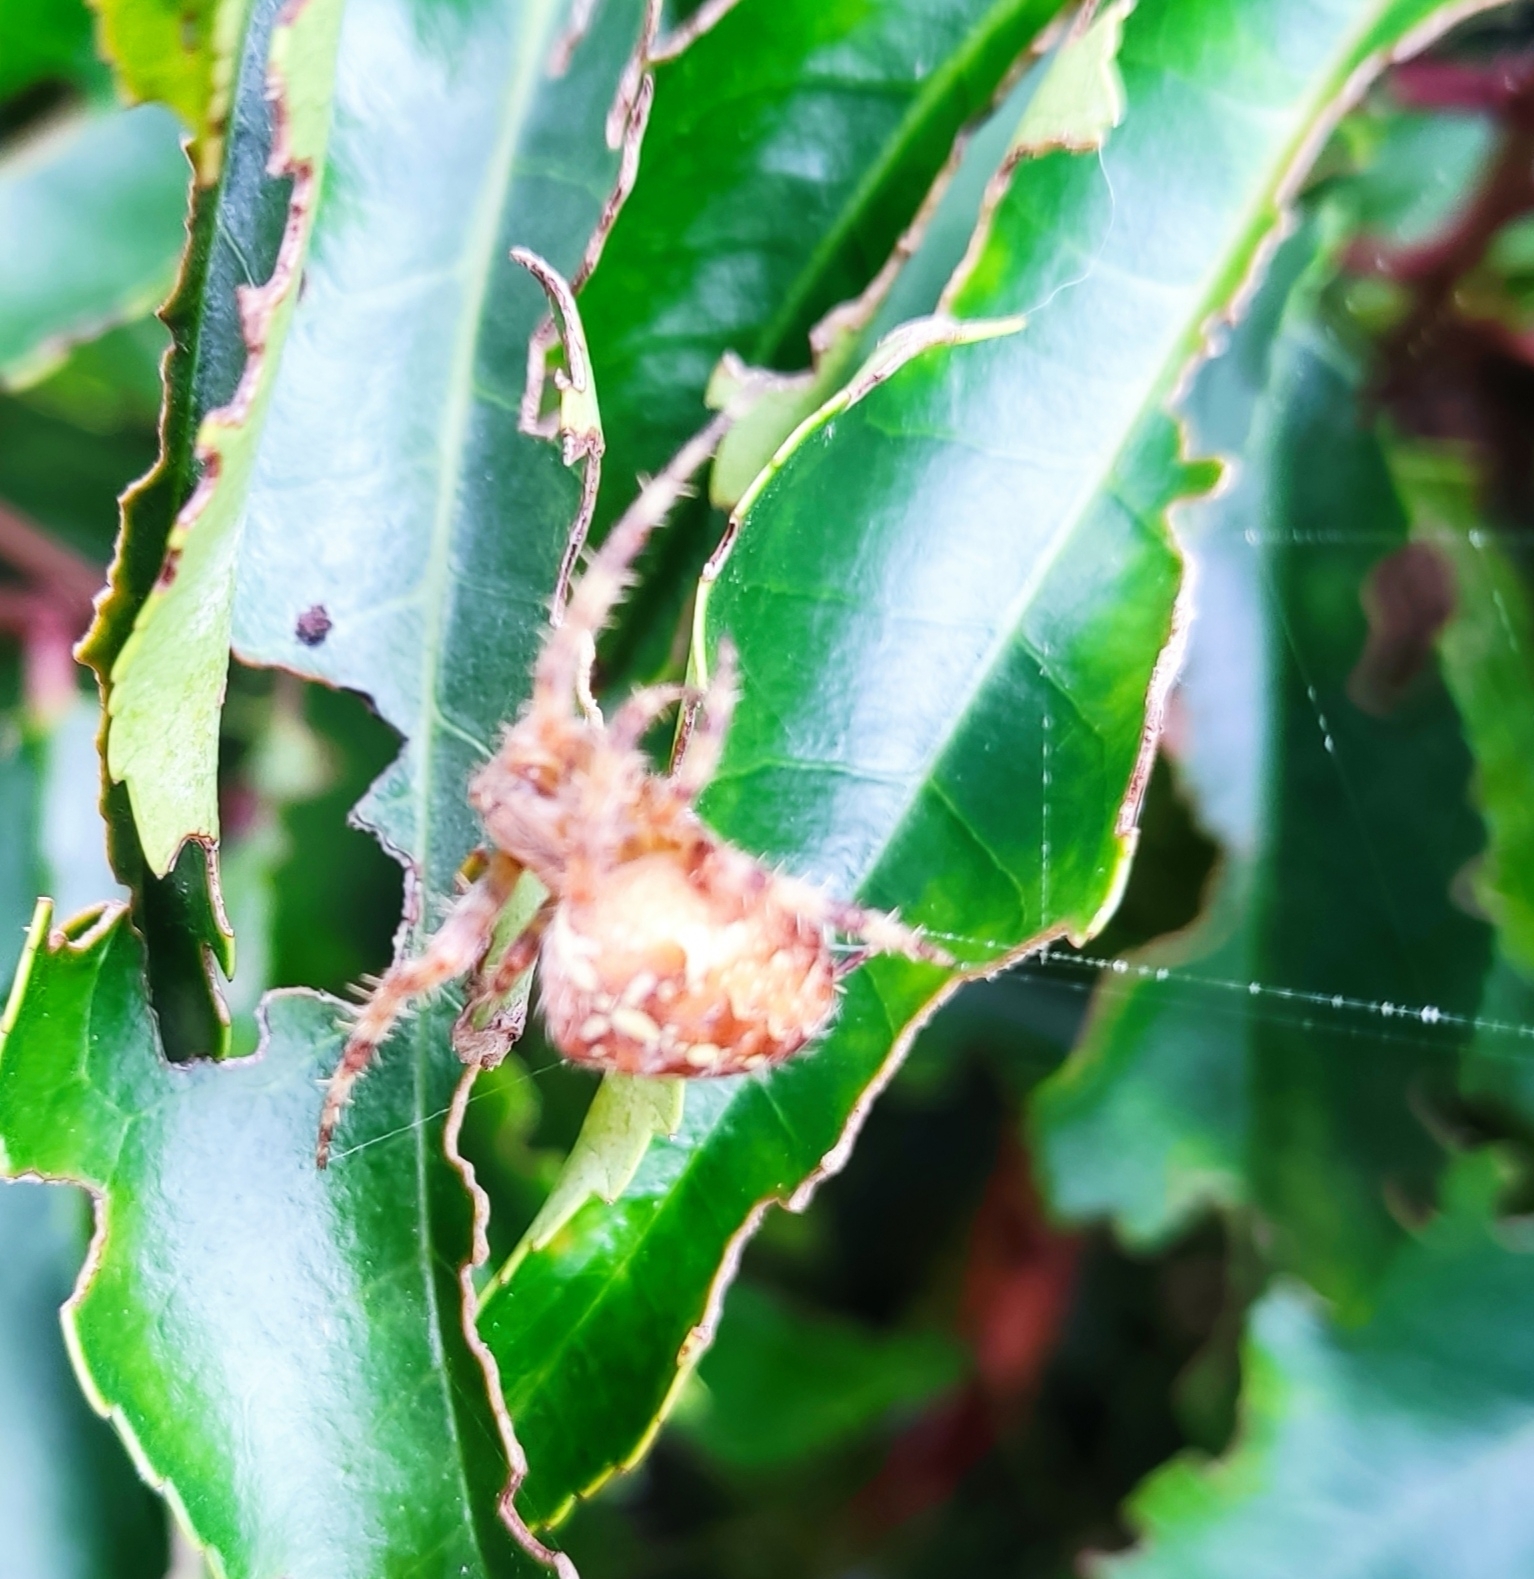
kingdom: Animalia
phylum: Arthropoda
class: Arachnida
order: Araneae
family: Araneidae
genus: Araneus
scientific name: Araneus diadematus
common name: Cross orbweaver
